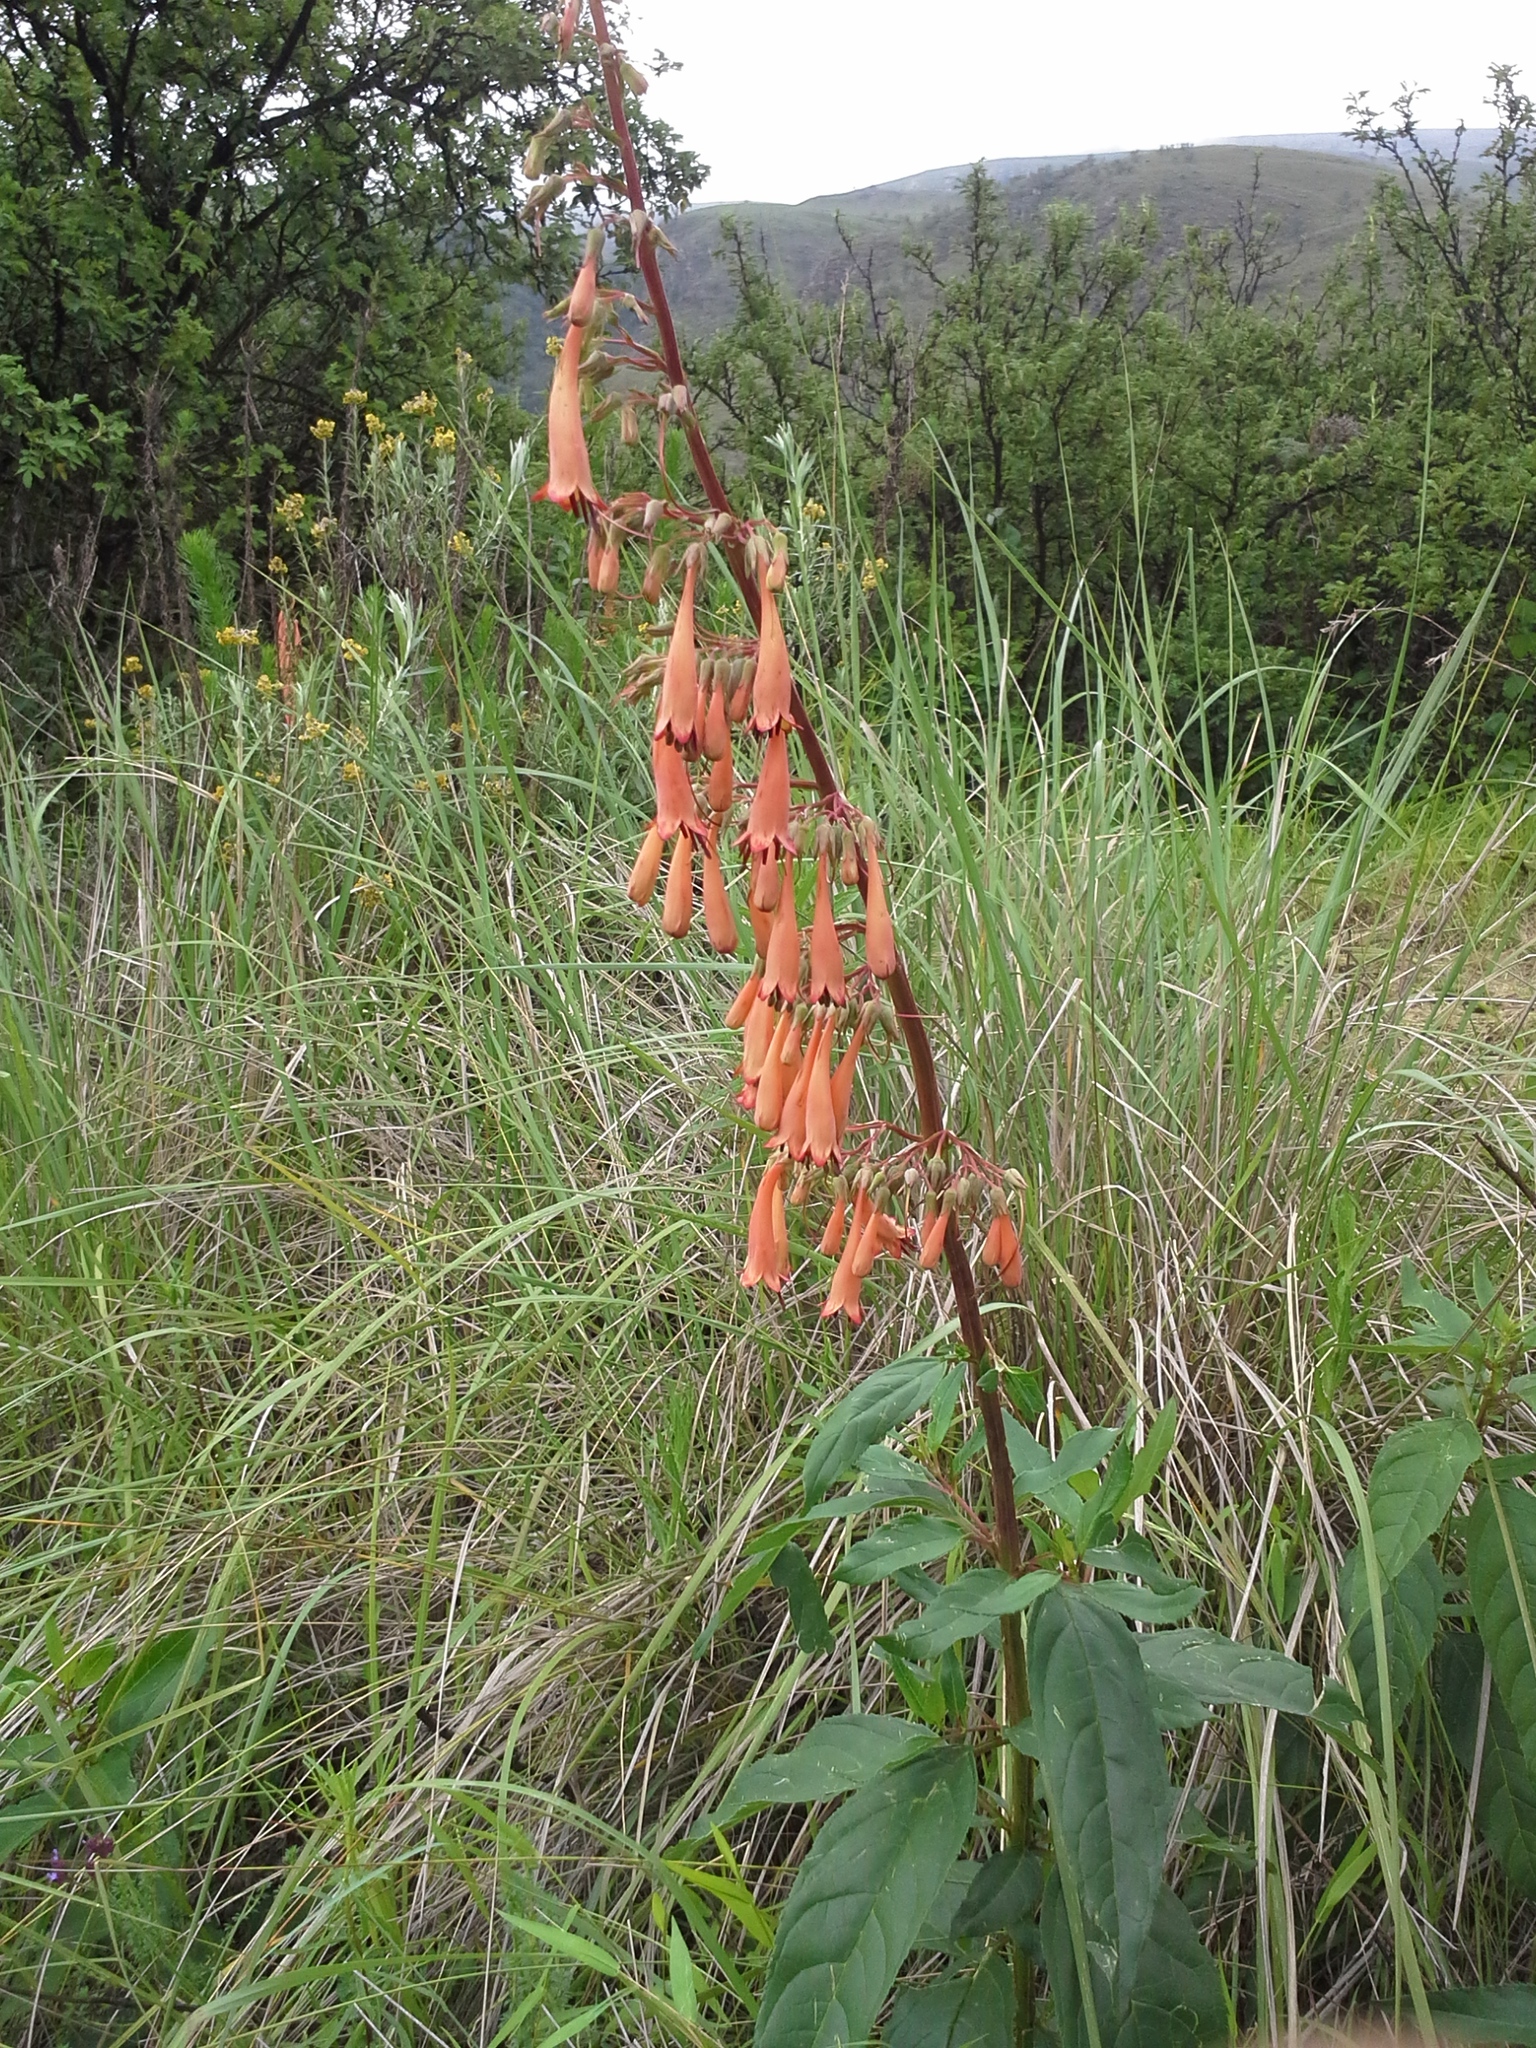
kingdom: Plantae
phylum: Tracheophyta
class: Magnoliopsida
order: Lamiales
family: Scrophulariaceae
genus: Phygelius
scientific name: Phygelius aequalis
